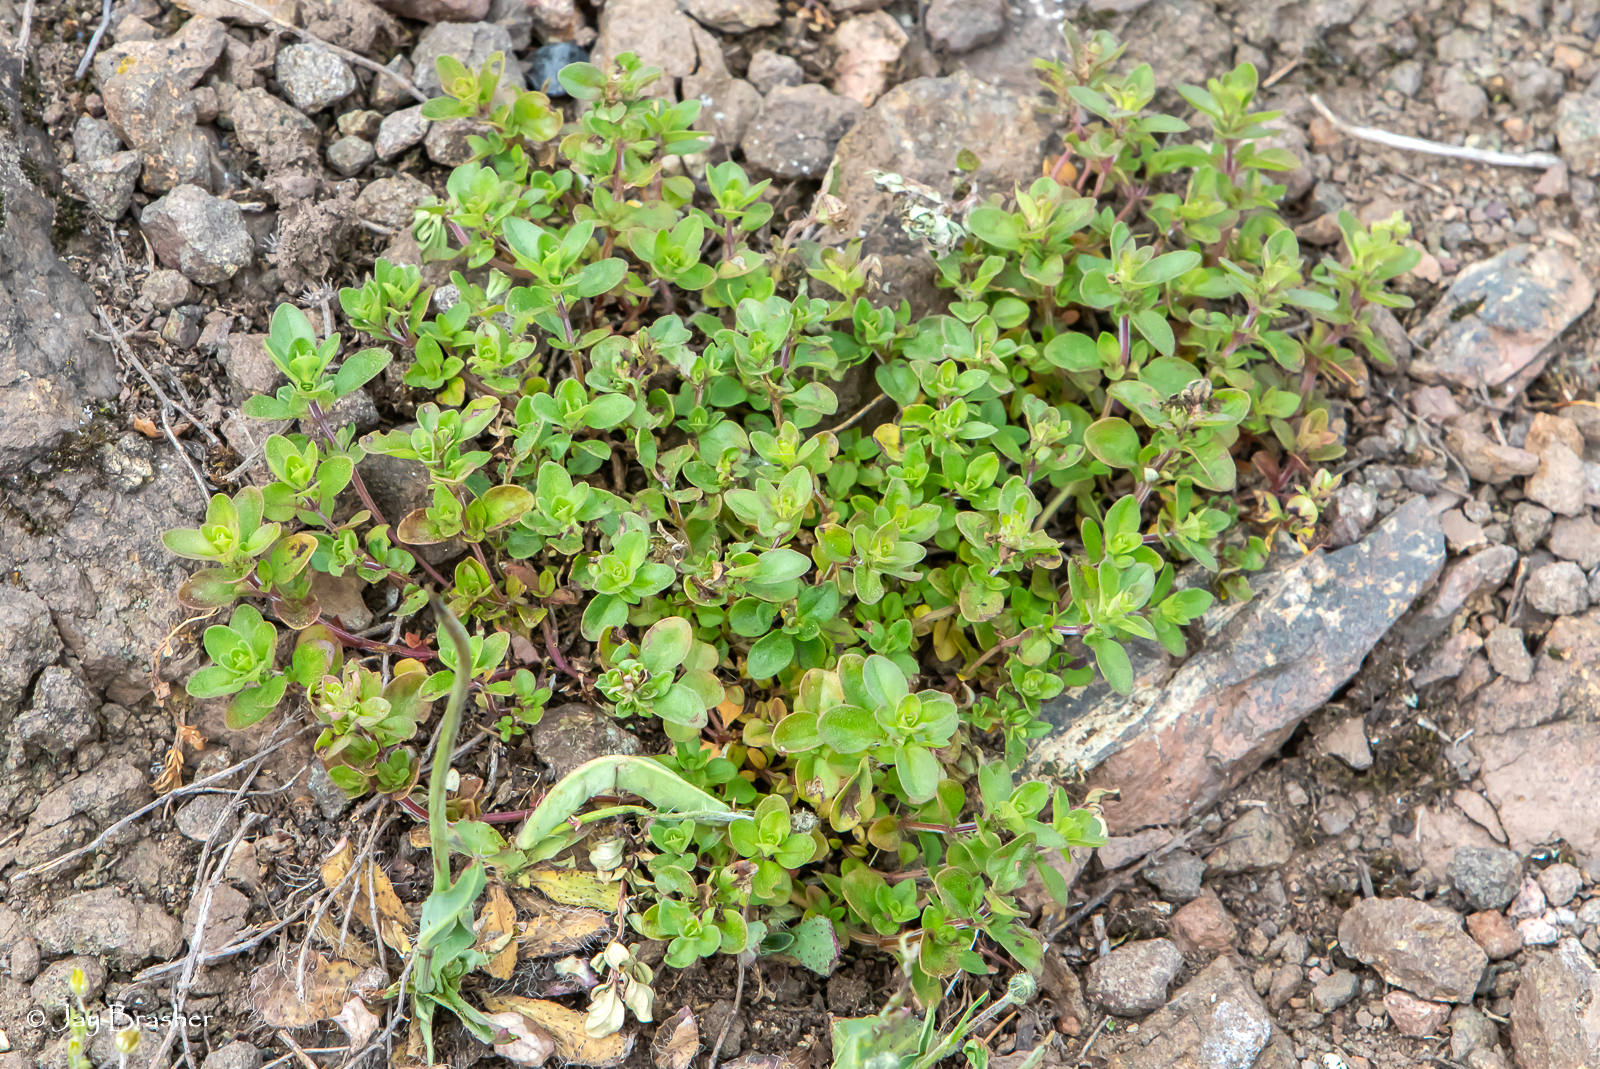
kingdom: Plantae
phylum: Tracheophyta
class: Magnoliopsida
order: Lamiales
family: Lamiaceae
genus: Thymus
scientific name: Thymus pulegioides
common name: Large thyme
